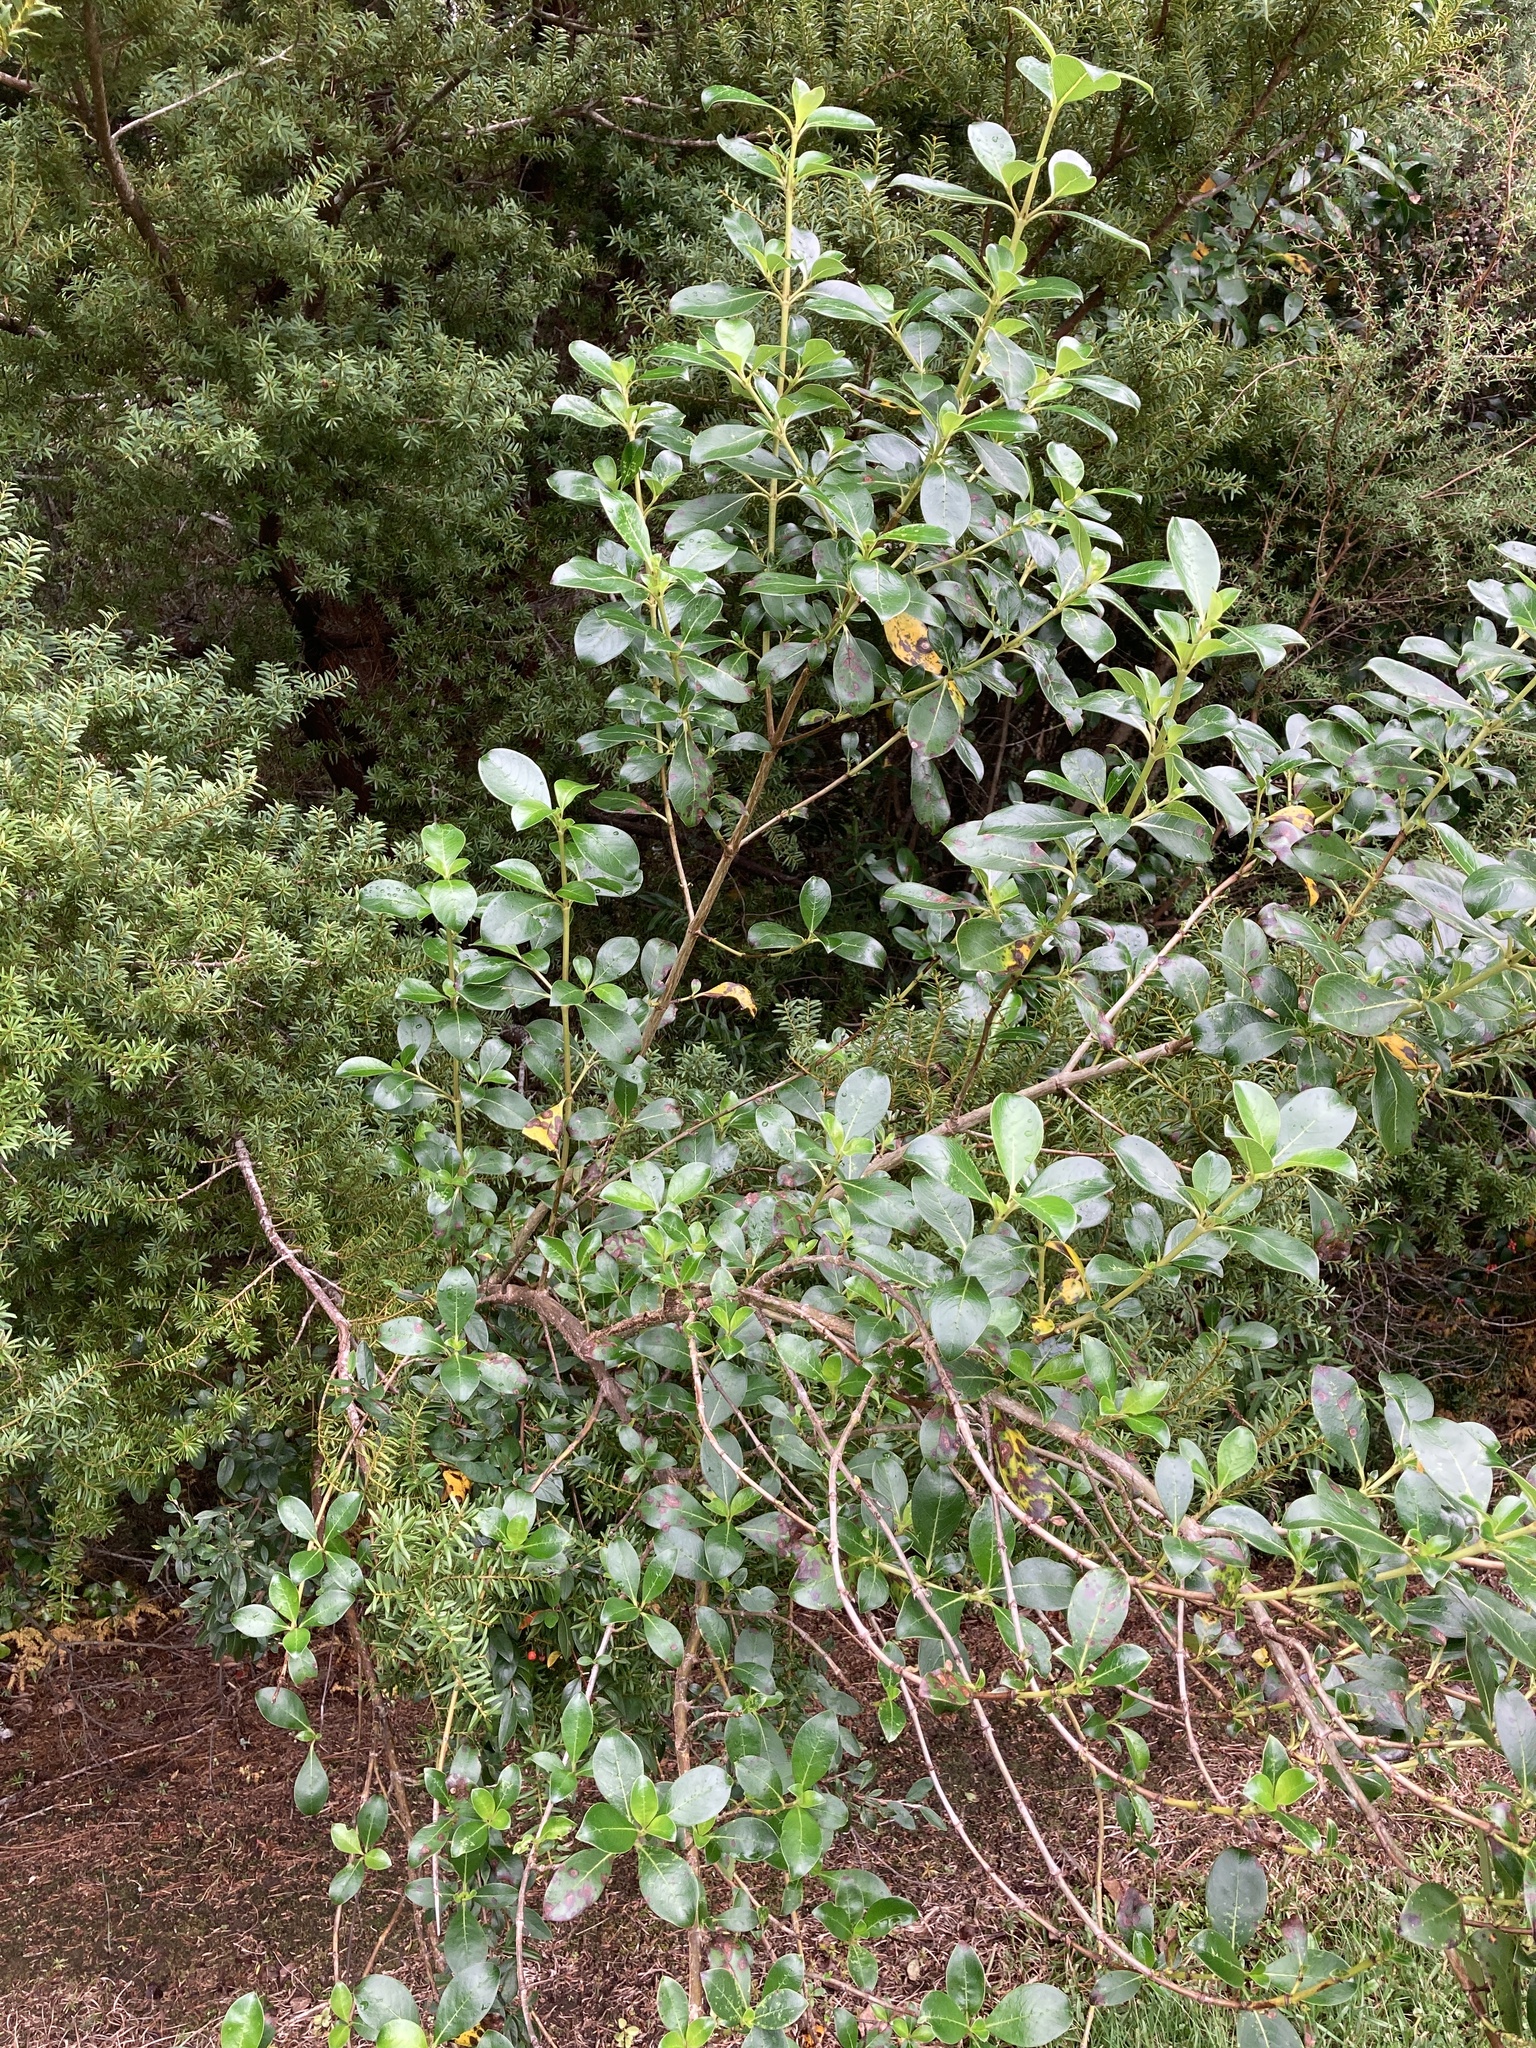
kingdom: Plantae
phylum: Tracheophyta
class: Magnoliopsida
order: Gentianales
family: Rubiaceae
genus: Coprosma
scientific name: Coprosma robusta
